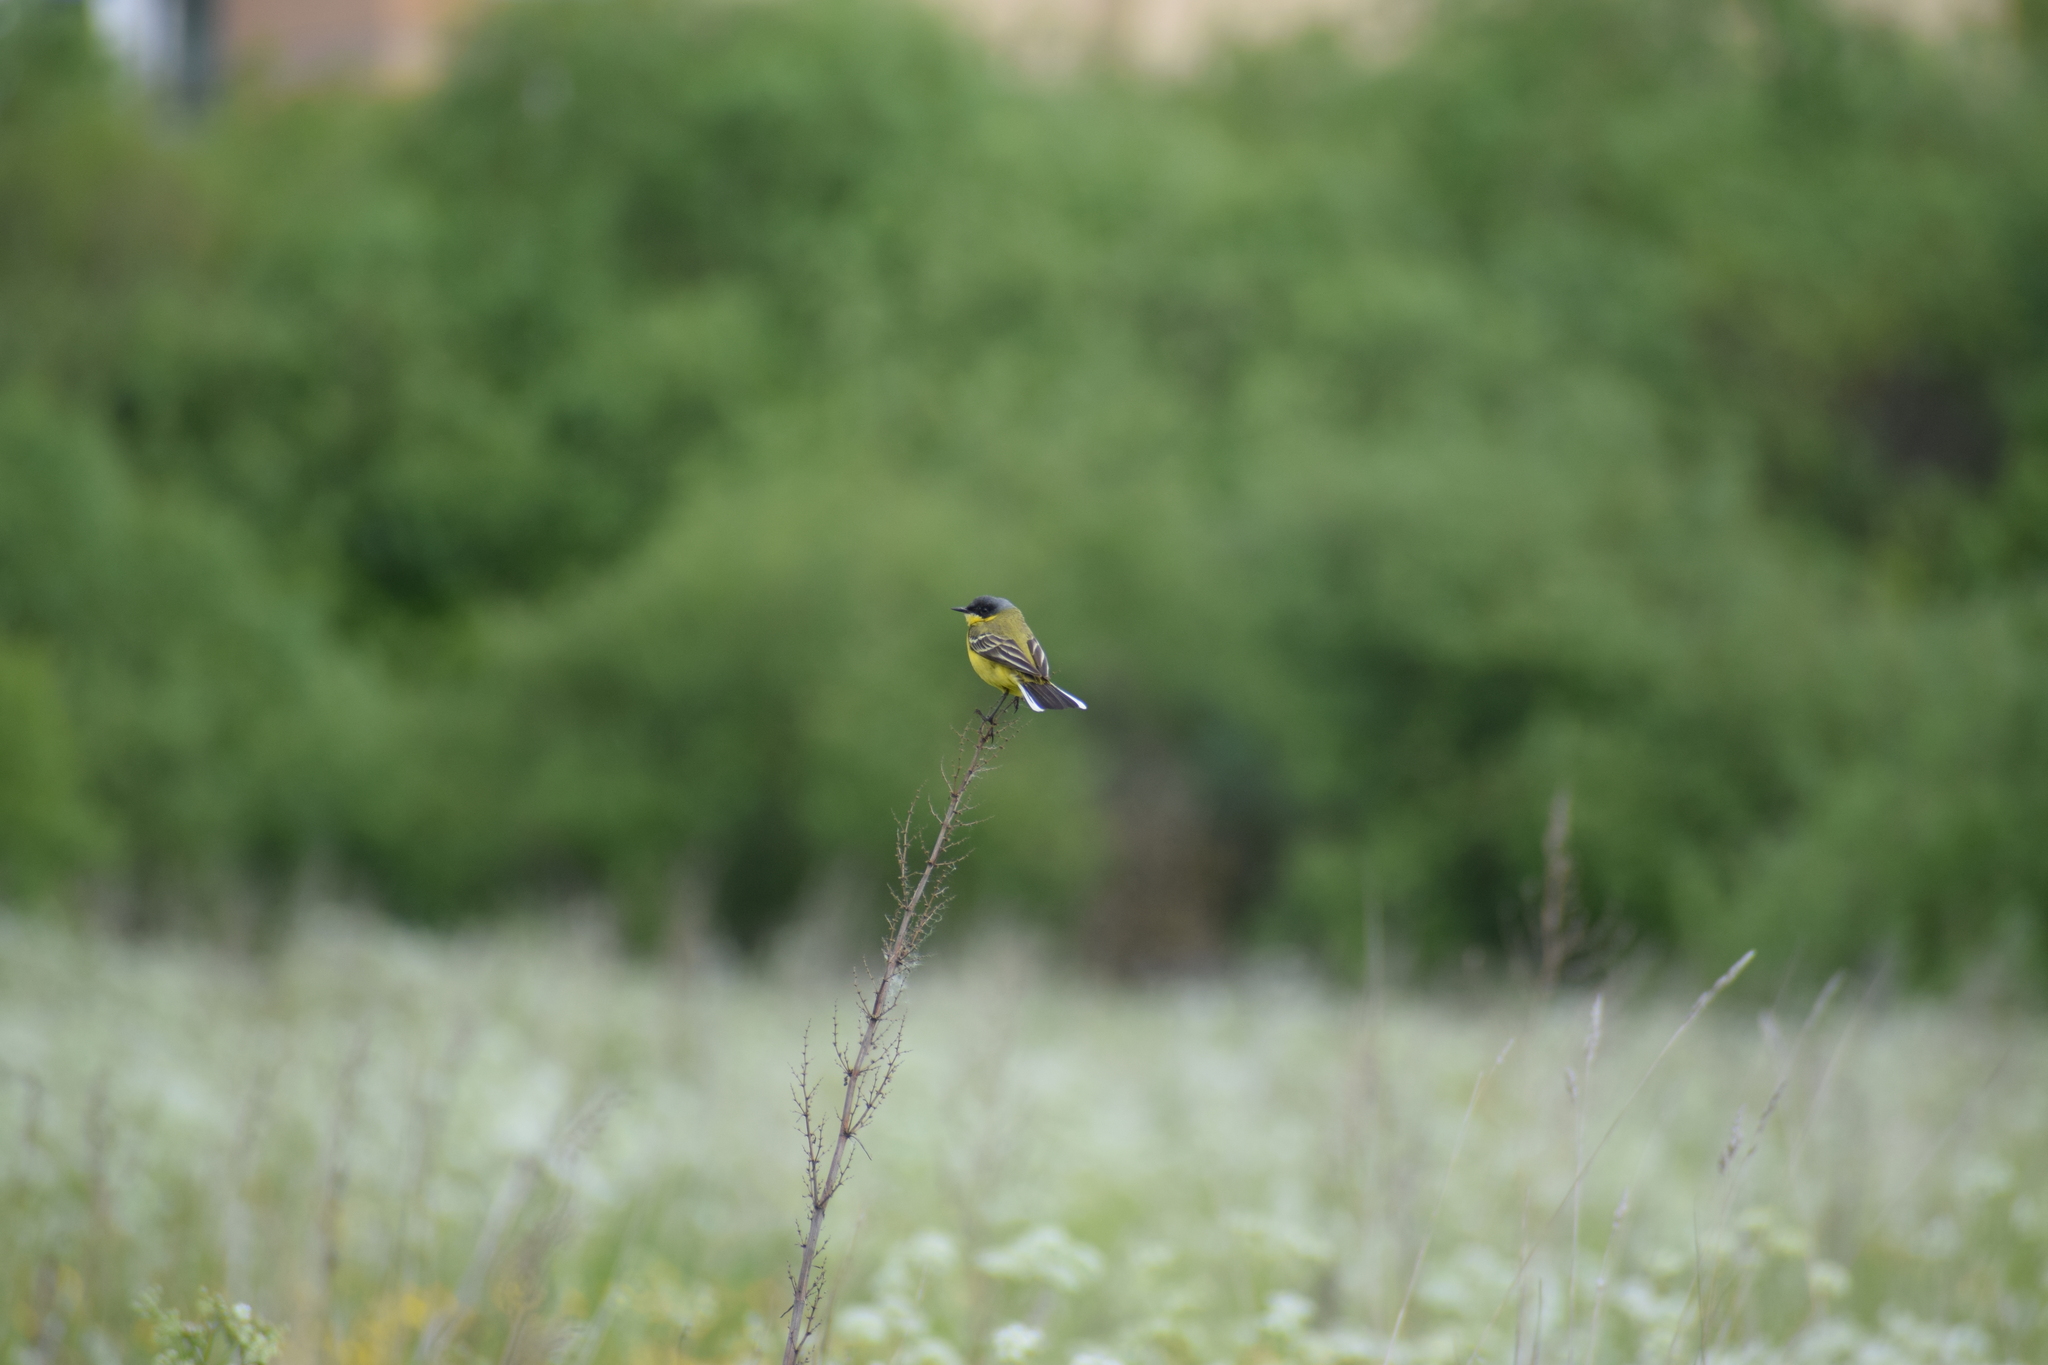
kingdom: Animalia
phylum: Chordata
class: Aves
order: Passeriformes
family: Motacillidae
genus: Motacilla
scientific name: Motacilla flava
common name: Western yellow wagtail
